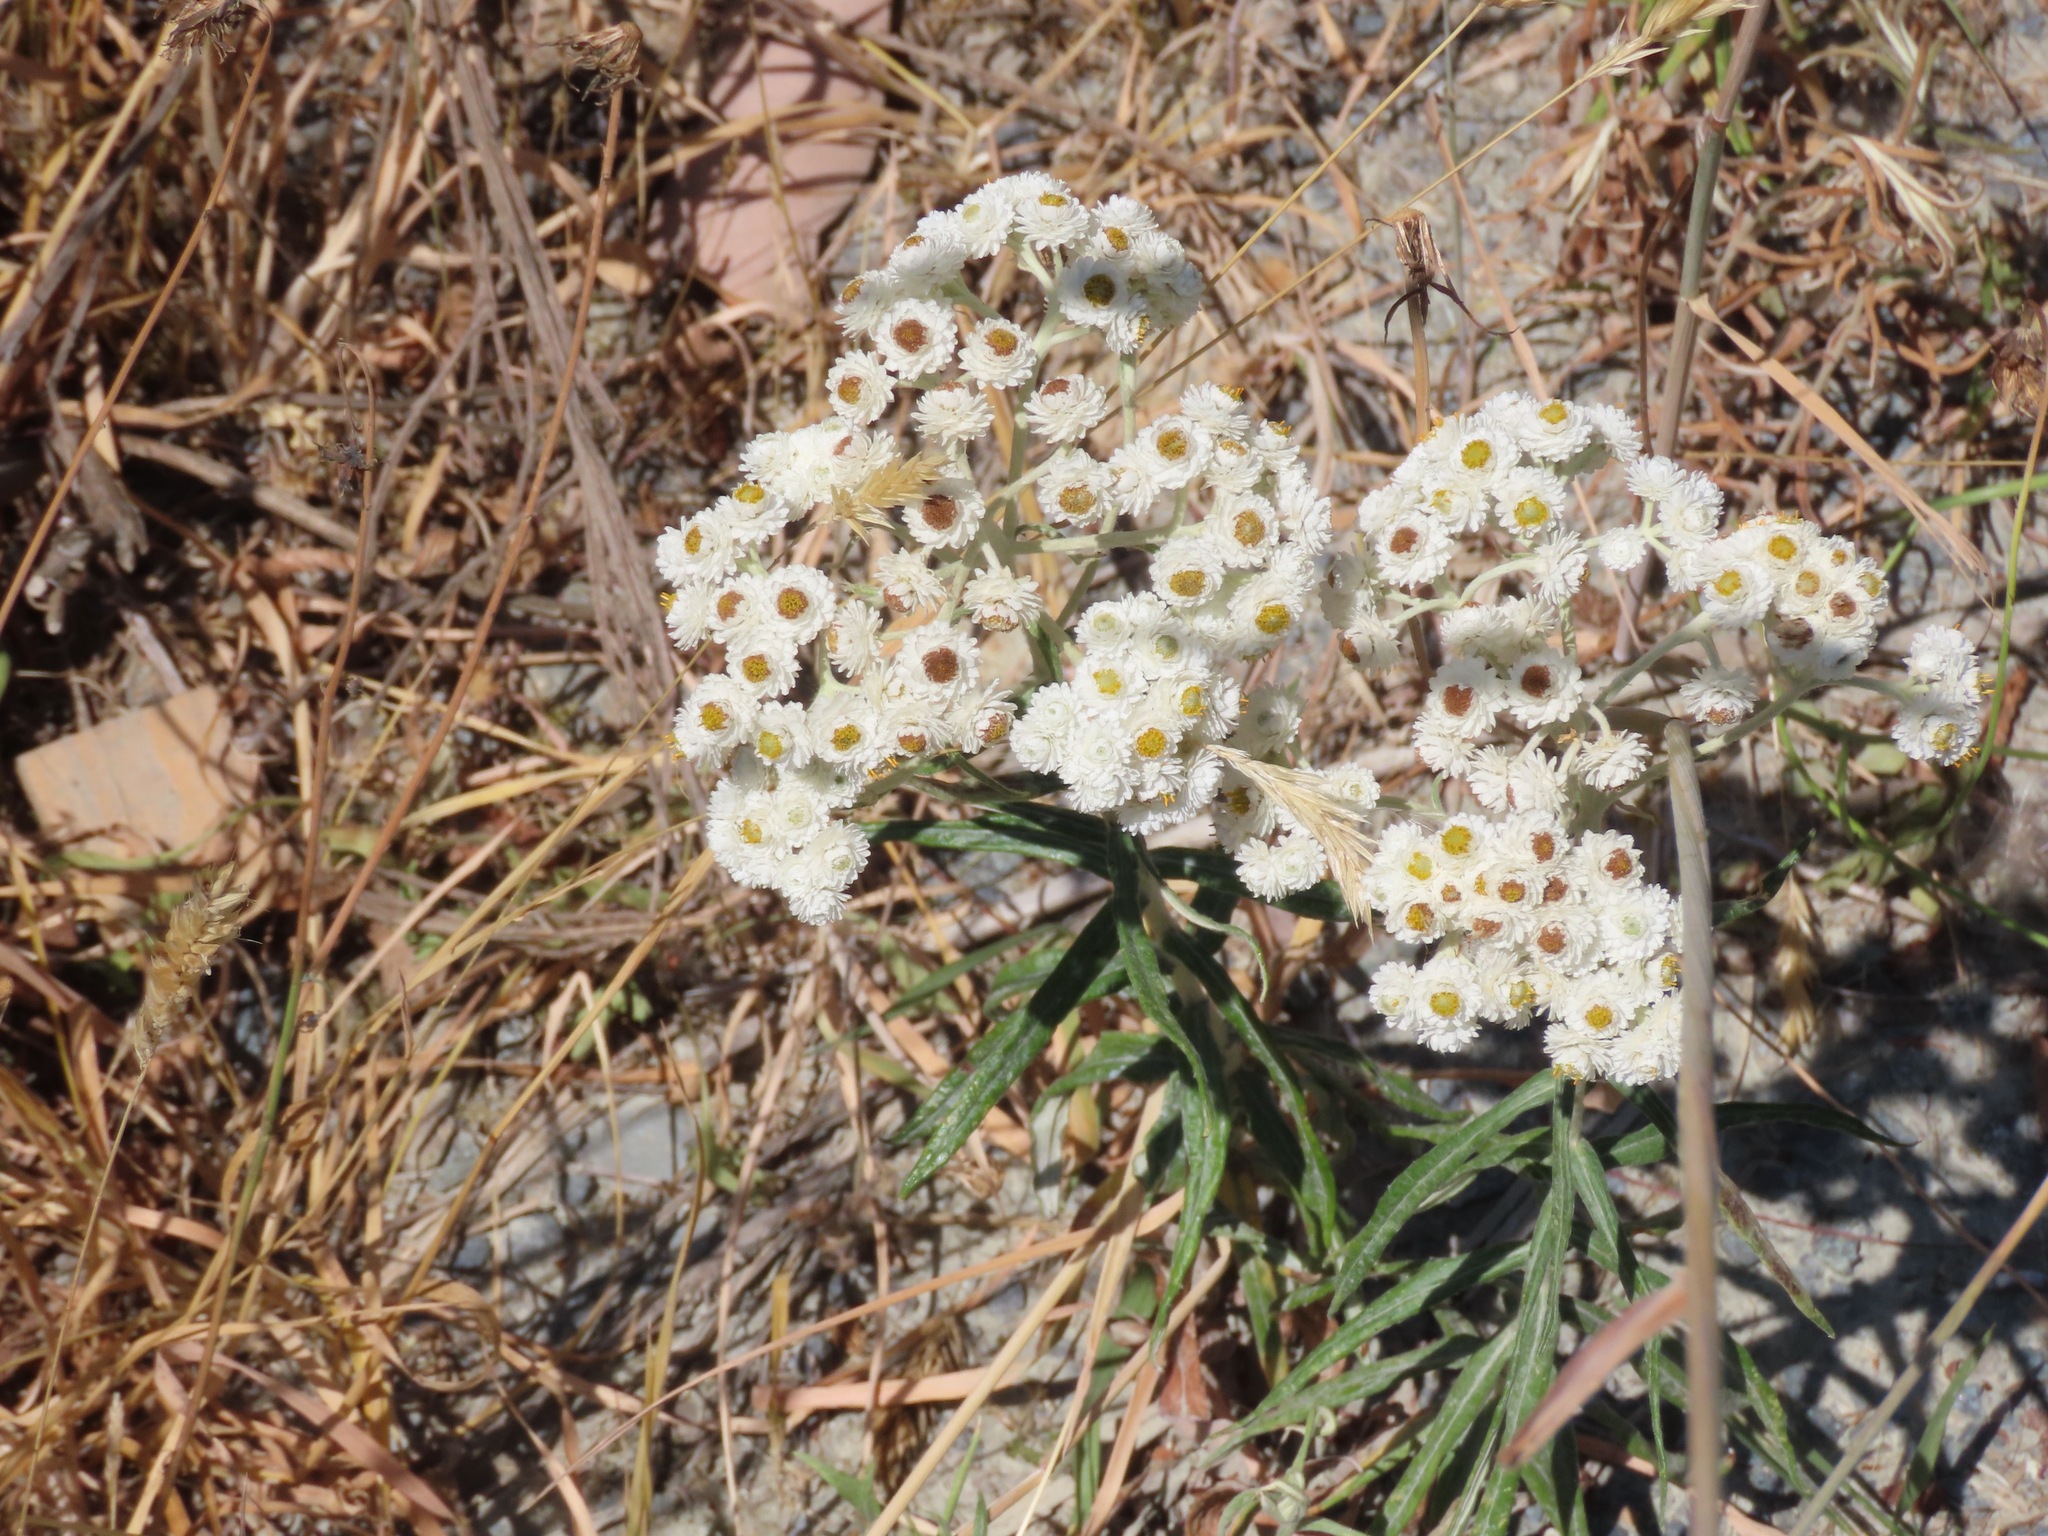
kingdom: Plantae
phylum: Tracheophyta
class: Magnoliopsida
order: Asterales
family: Asteraceae
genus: Anaphalis
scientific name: Anaphalis margaritacea
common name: Pearly everlasting
